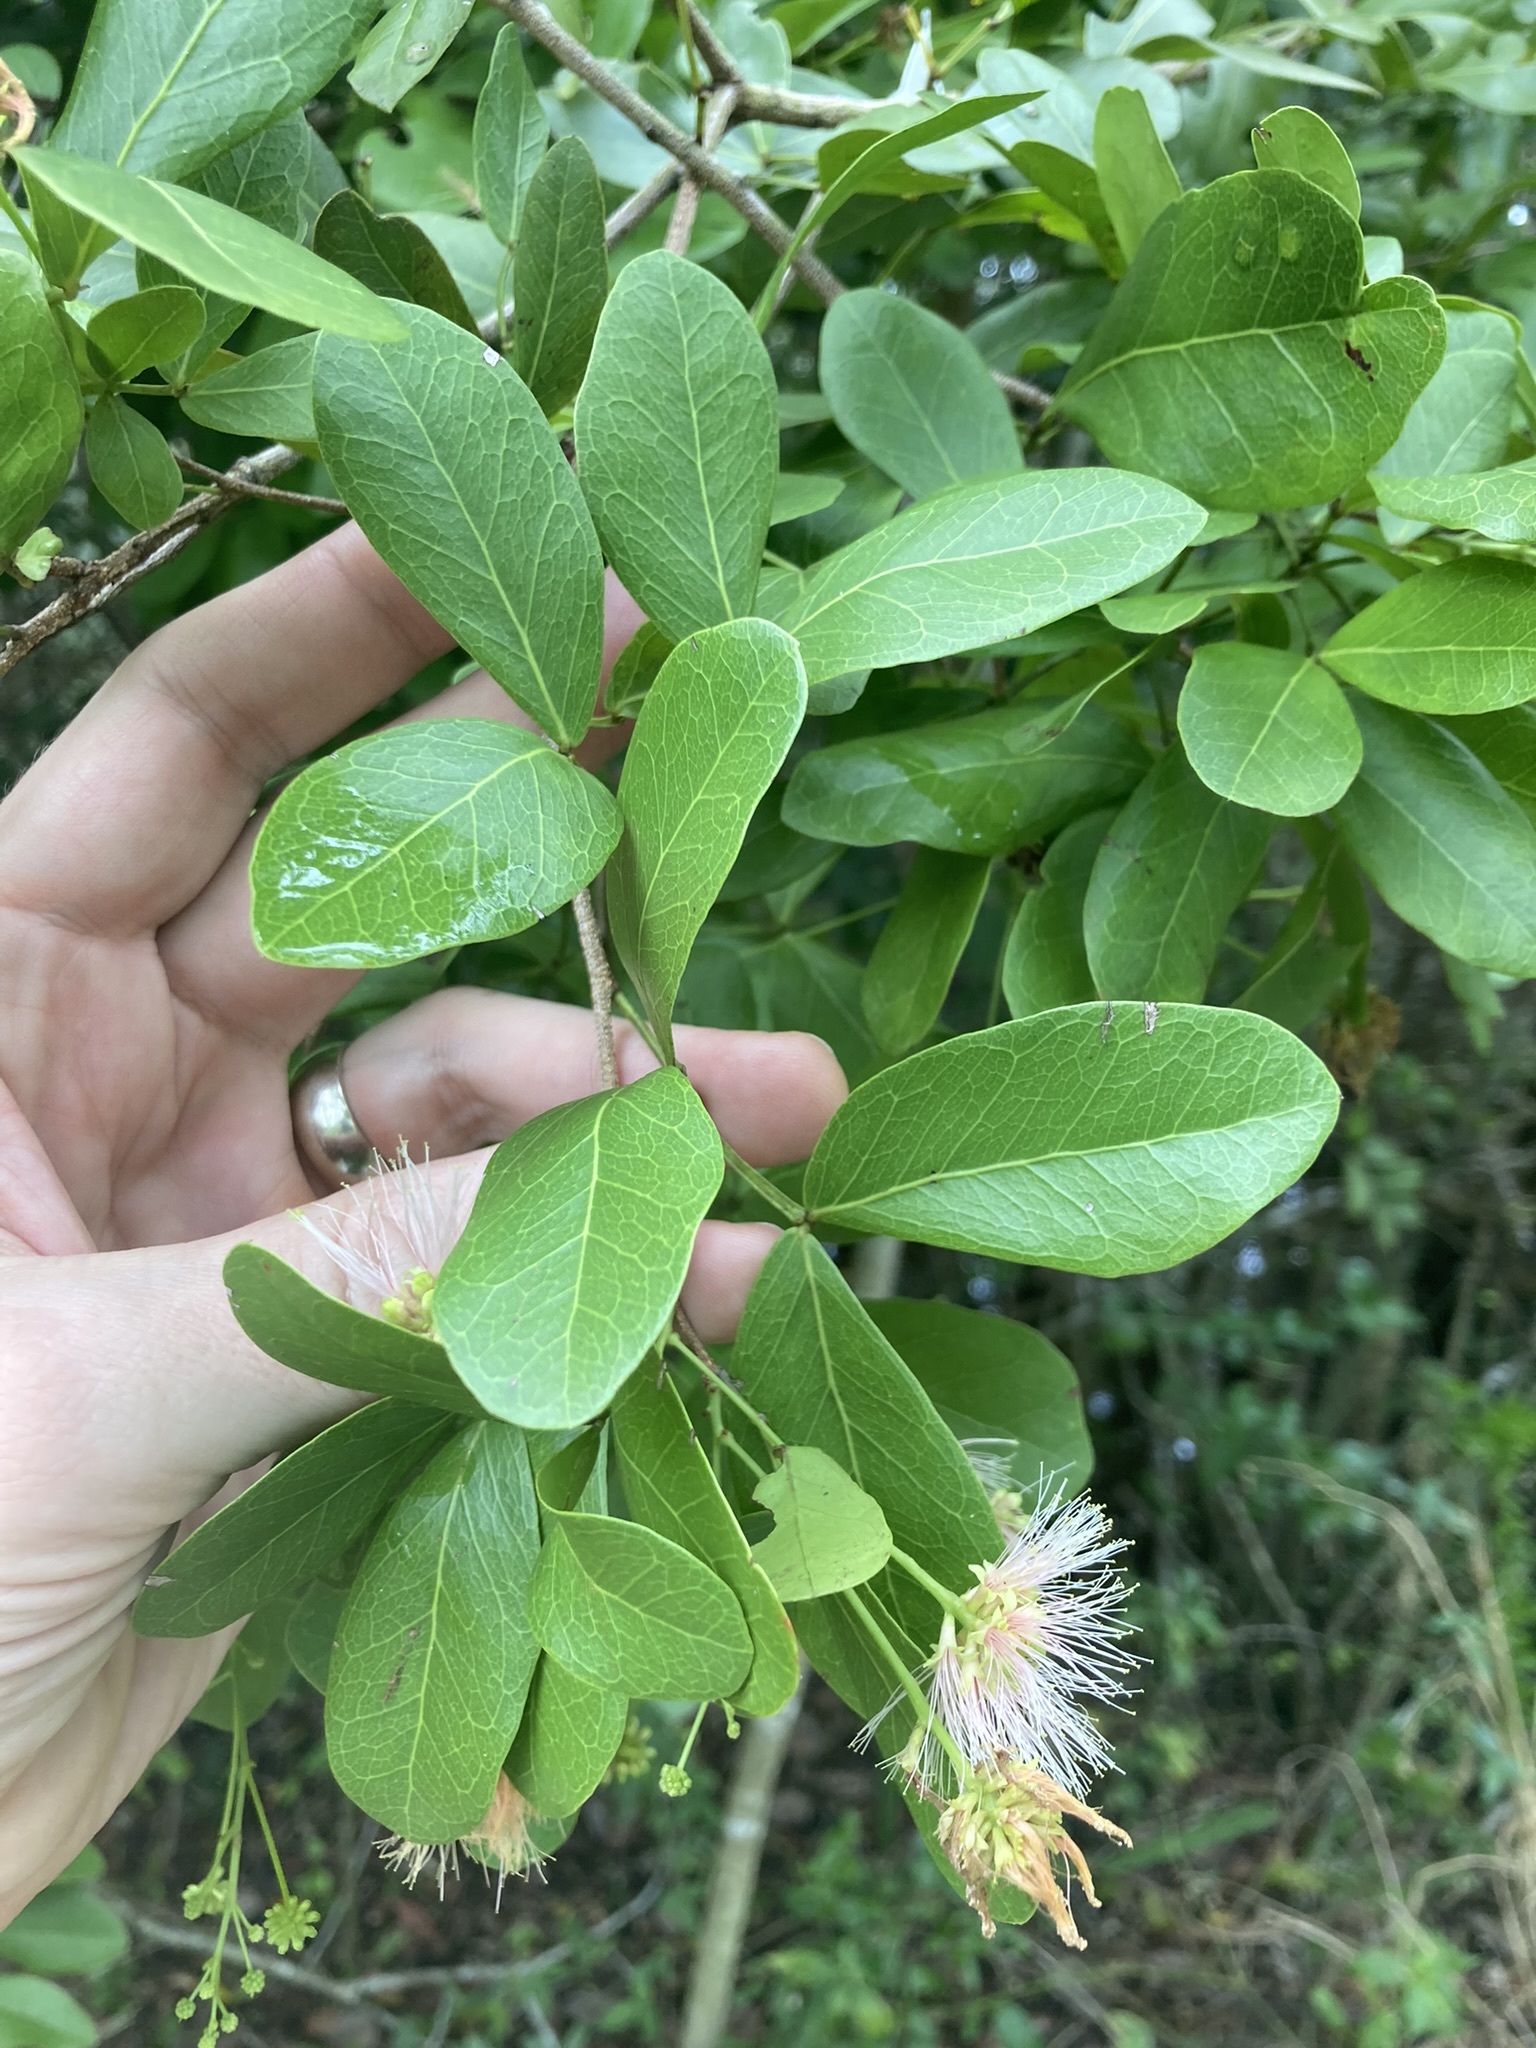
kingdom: Plantae
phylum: Tracheophyta
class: Magnoliopsida
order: Fabales
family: Fabaceae
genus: Pithecellobium
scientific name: Pithecellobium keyense
